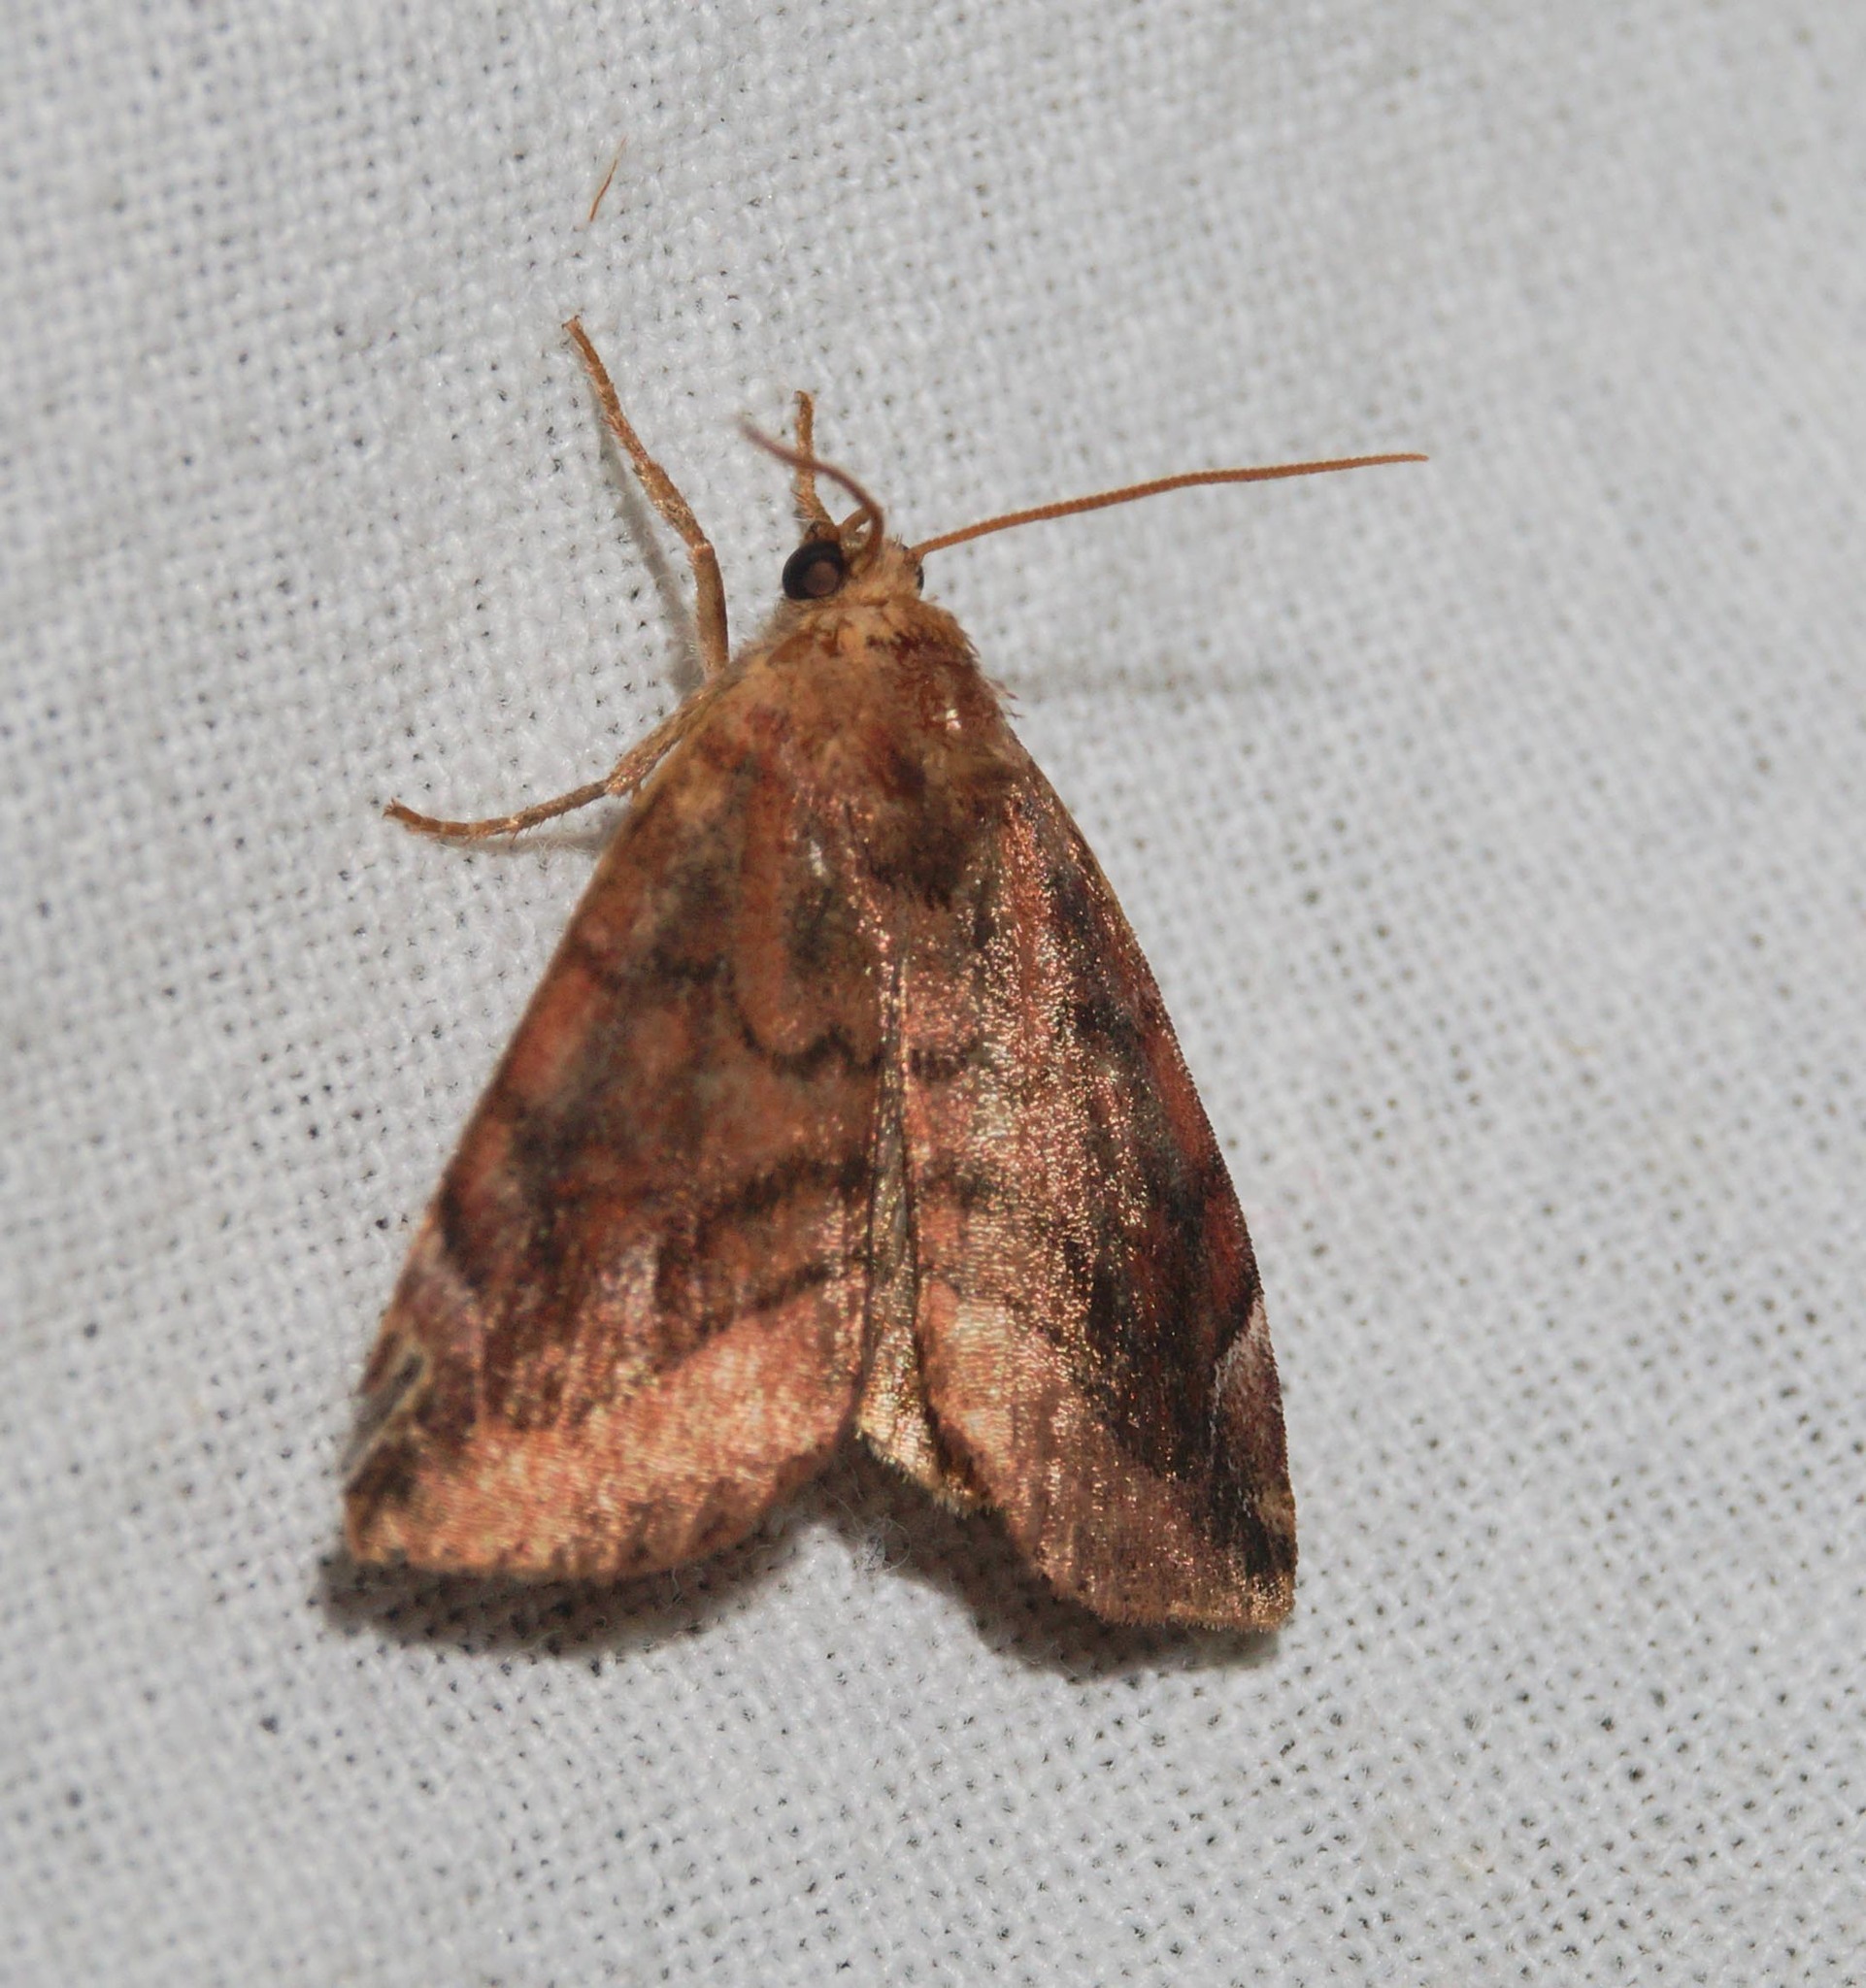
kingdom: Animalia
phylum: Arthropoda
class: Insecta
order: Lepidoptera
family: Noctuidae
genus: Cosmia
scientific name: Cosmia pyralina
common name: Lunar-spotted pinion
